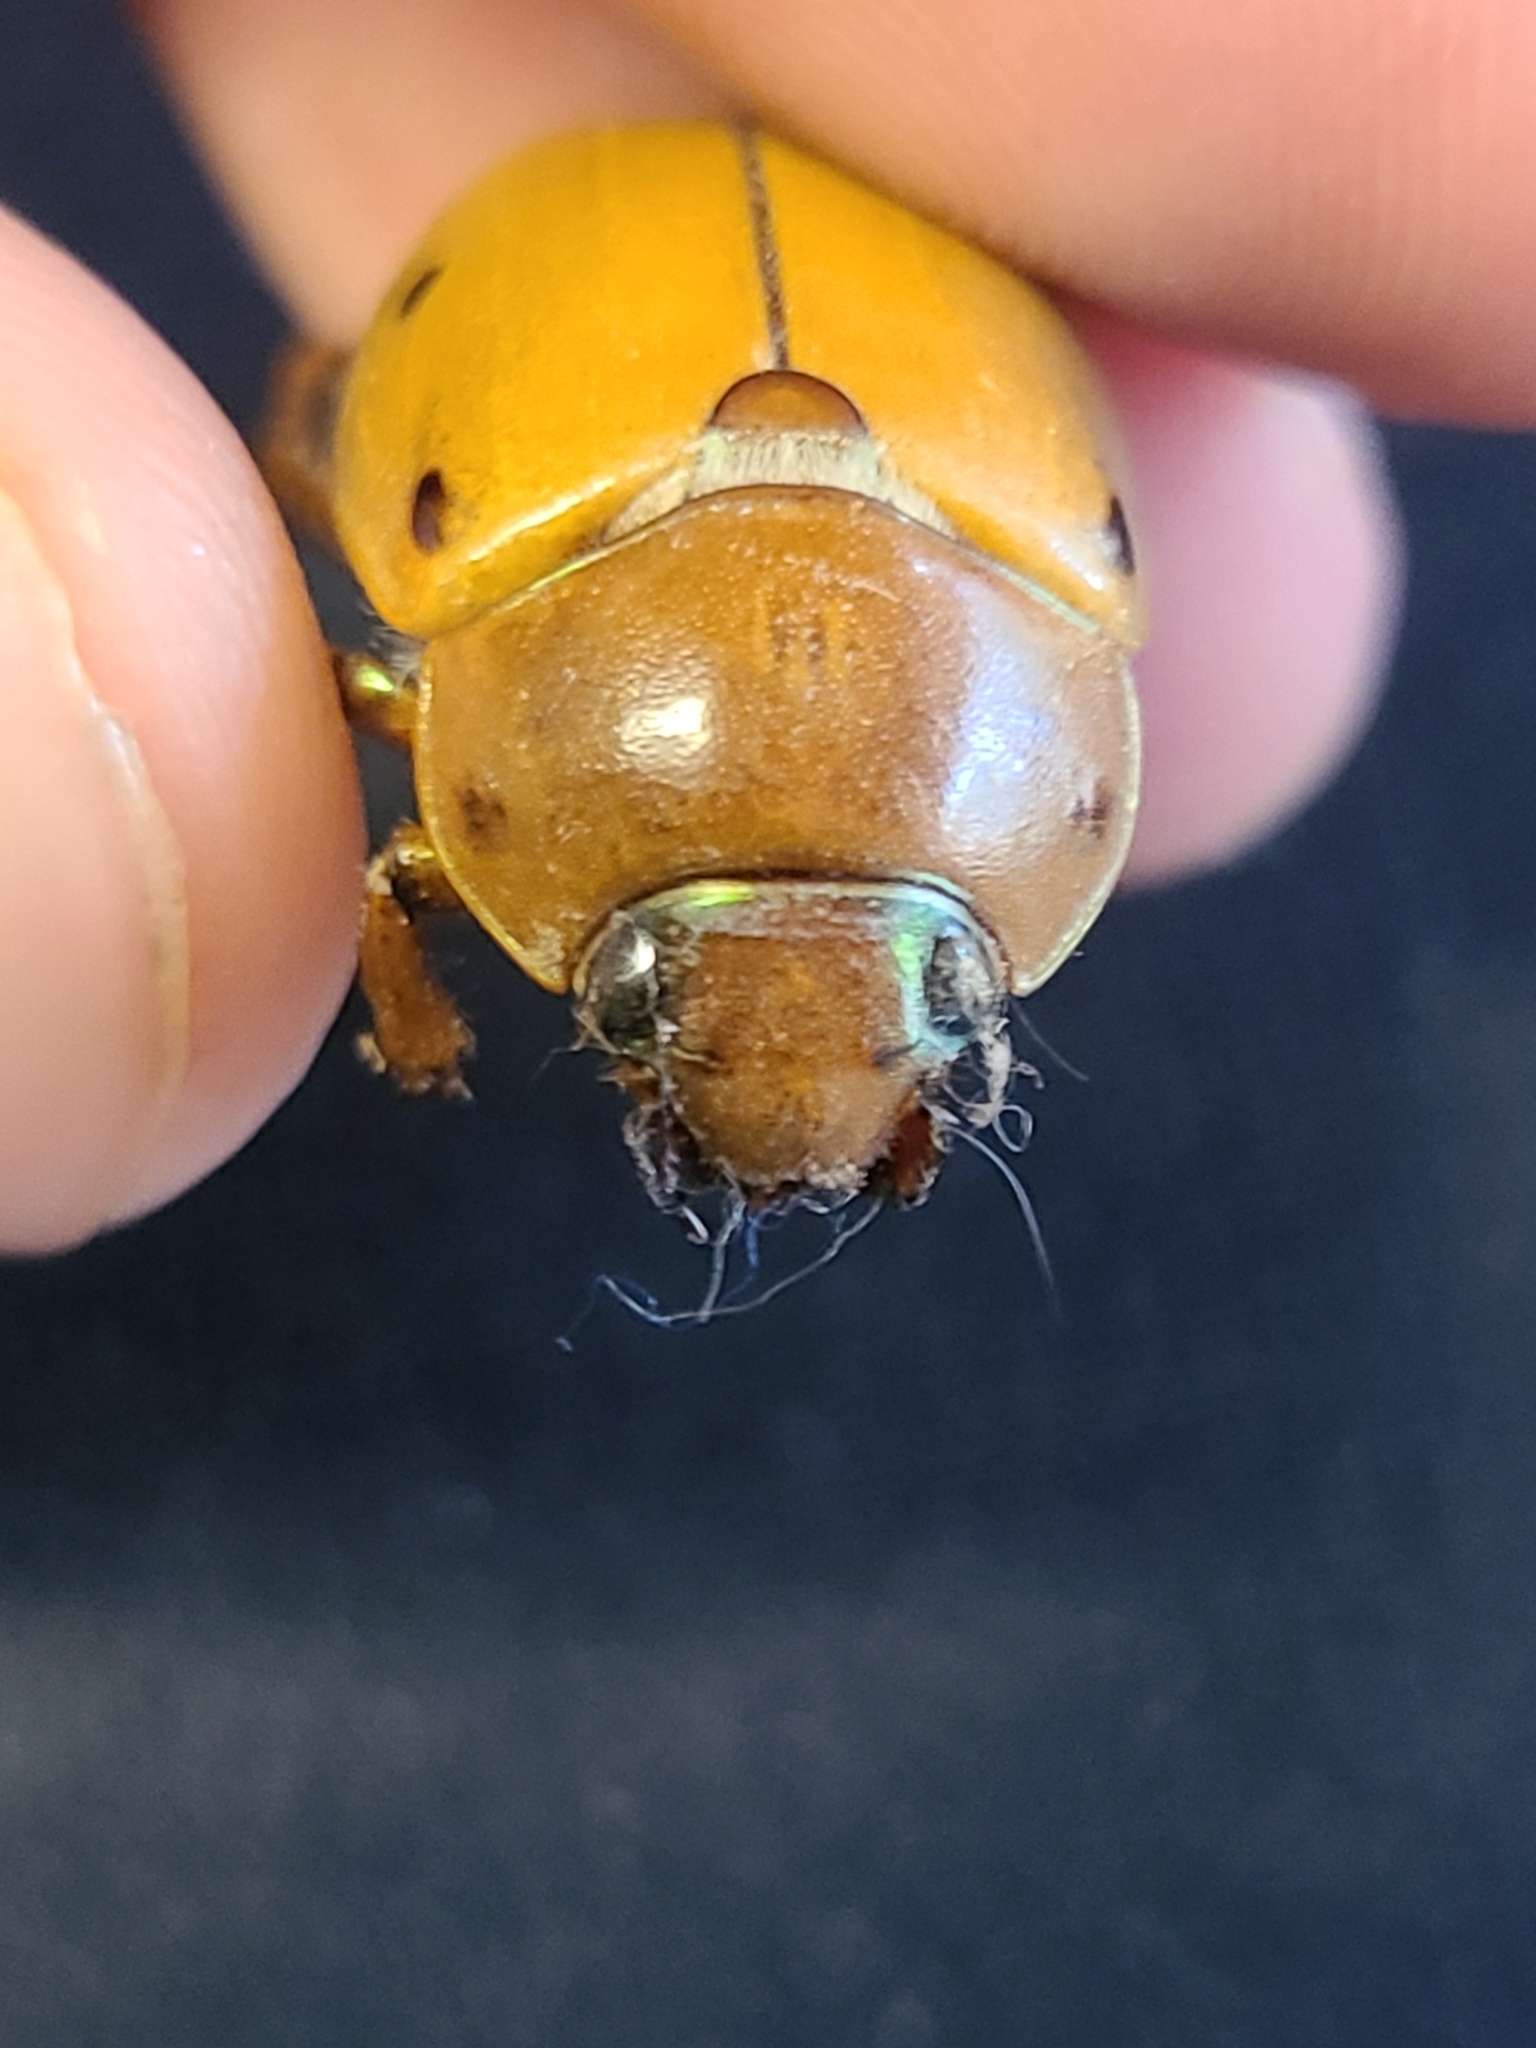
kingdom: Animalia
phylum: Arthropoda
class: Insecta
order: Coleoptera
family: Scarabaeidae
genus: Pelidnota
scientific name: Pelidnota punctata
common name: Grapevine beetle
